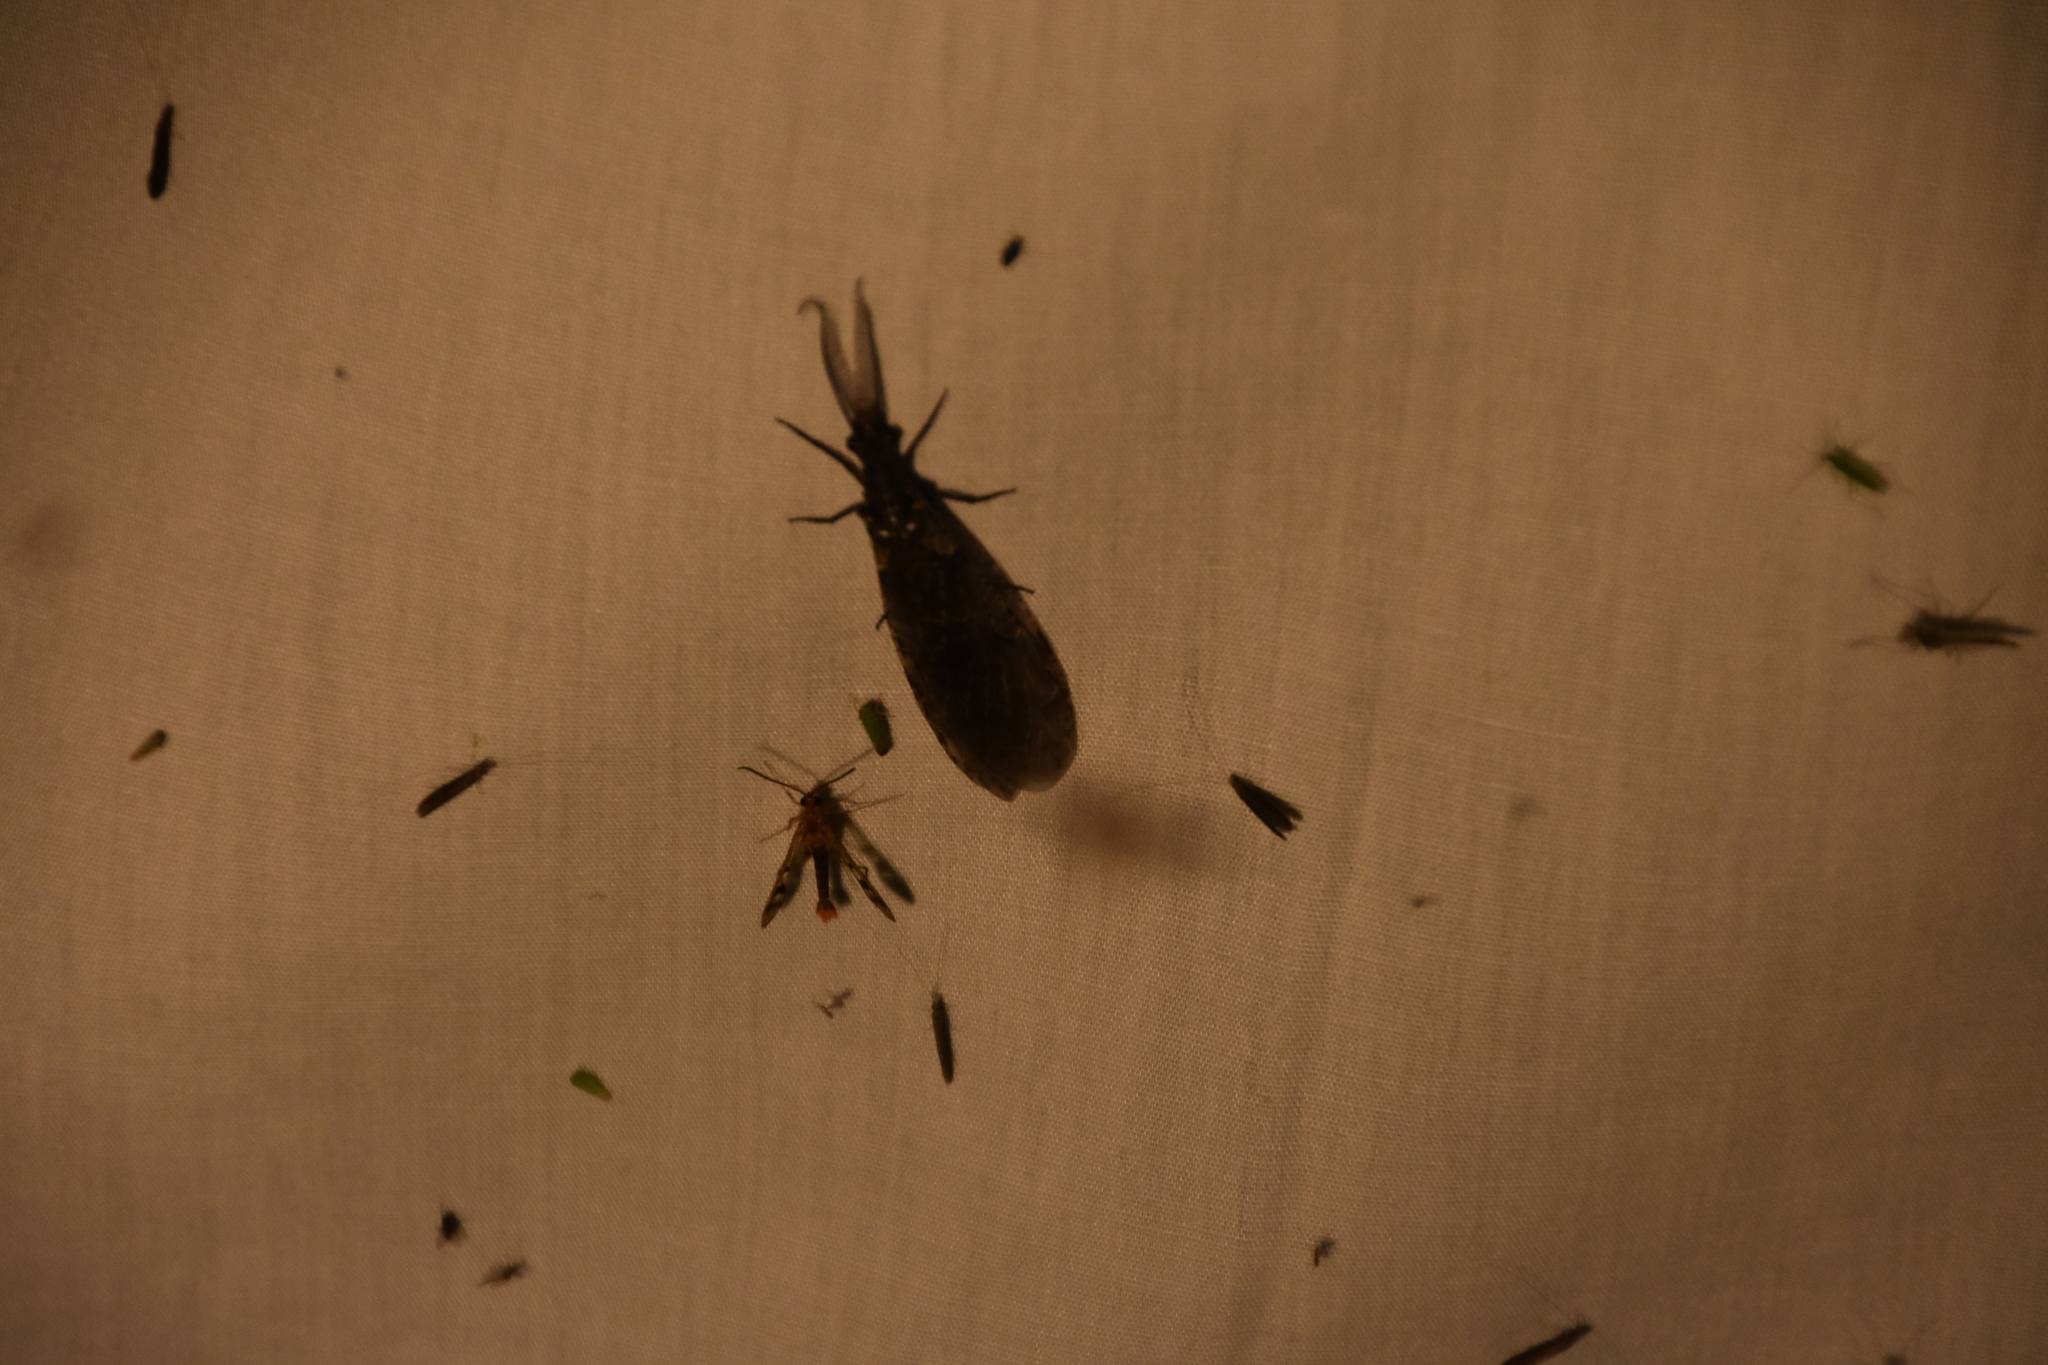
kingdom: Animalia
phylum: Arthropoda
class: Insecta
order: Megaloptera
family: Corydalidae
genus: Chauliodes
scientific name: Chauliodes
